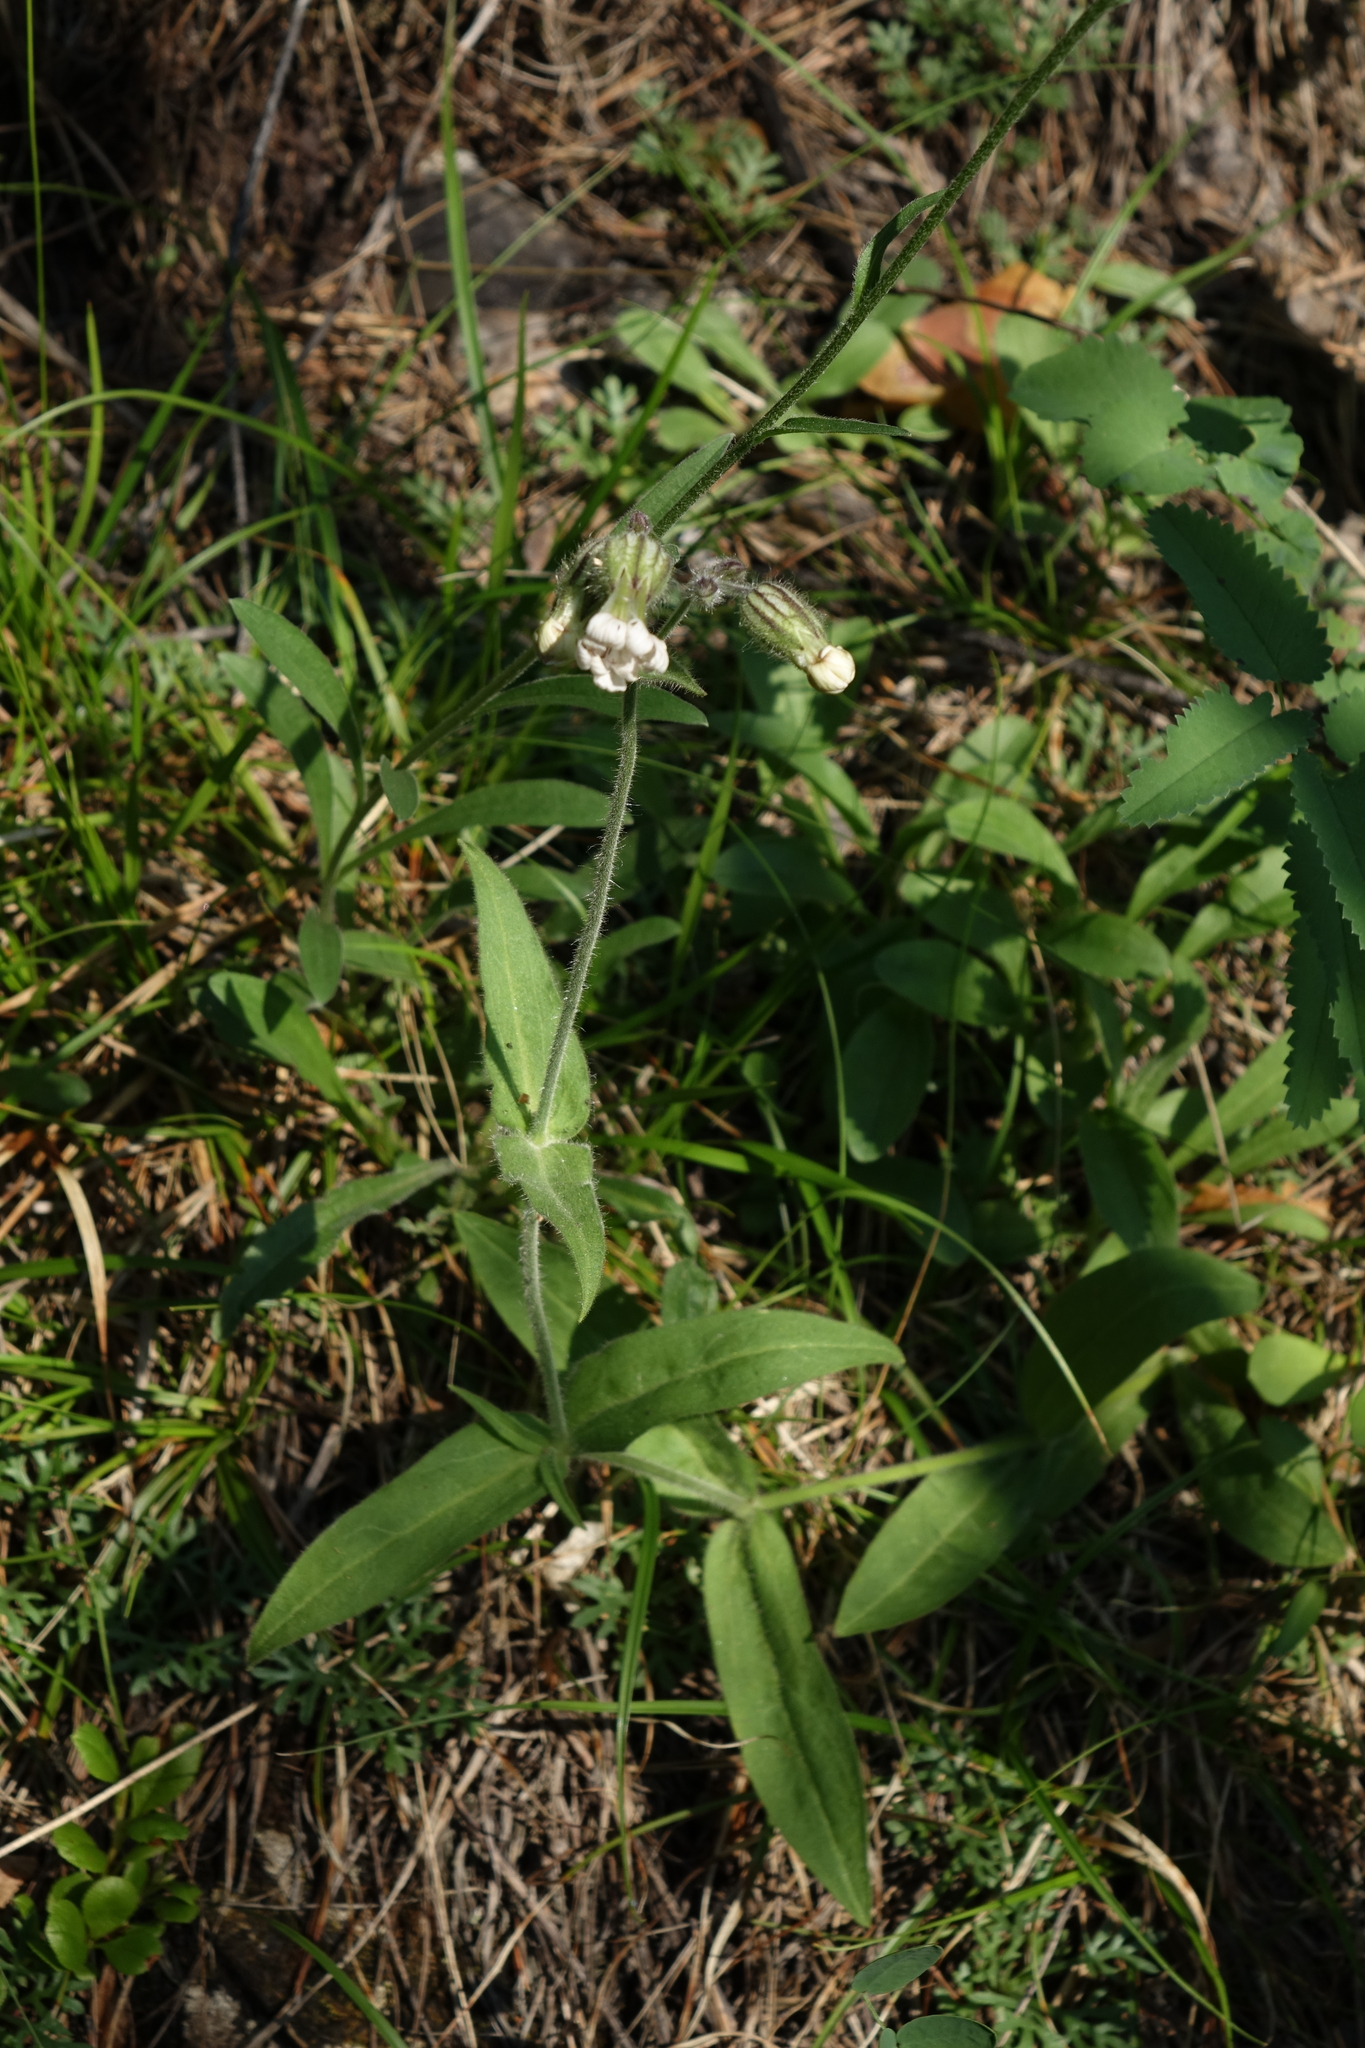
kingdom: Plantae
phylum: Tracheophyta
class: Magnoliopsida
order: Caryophyllales
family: Caryophyllaceae
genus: Silene
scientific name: Silene latifolia
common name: White campion
